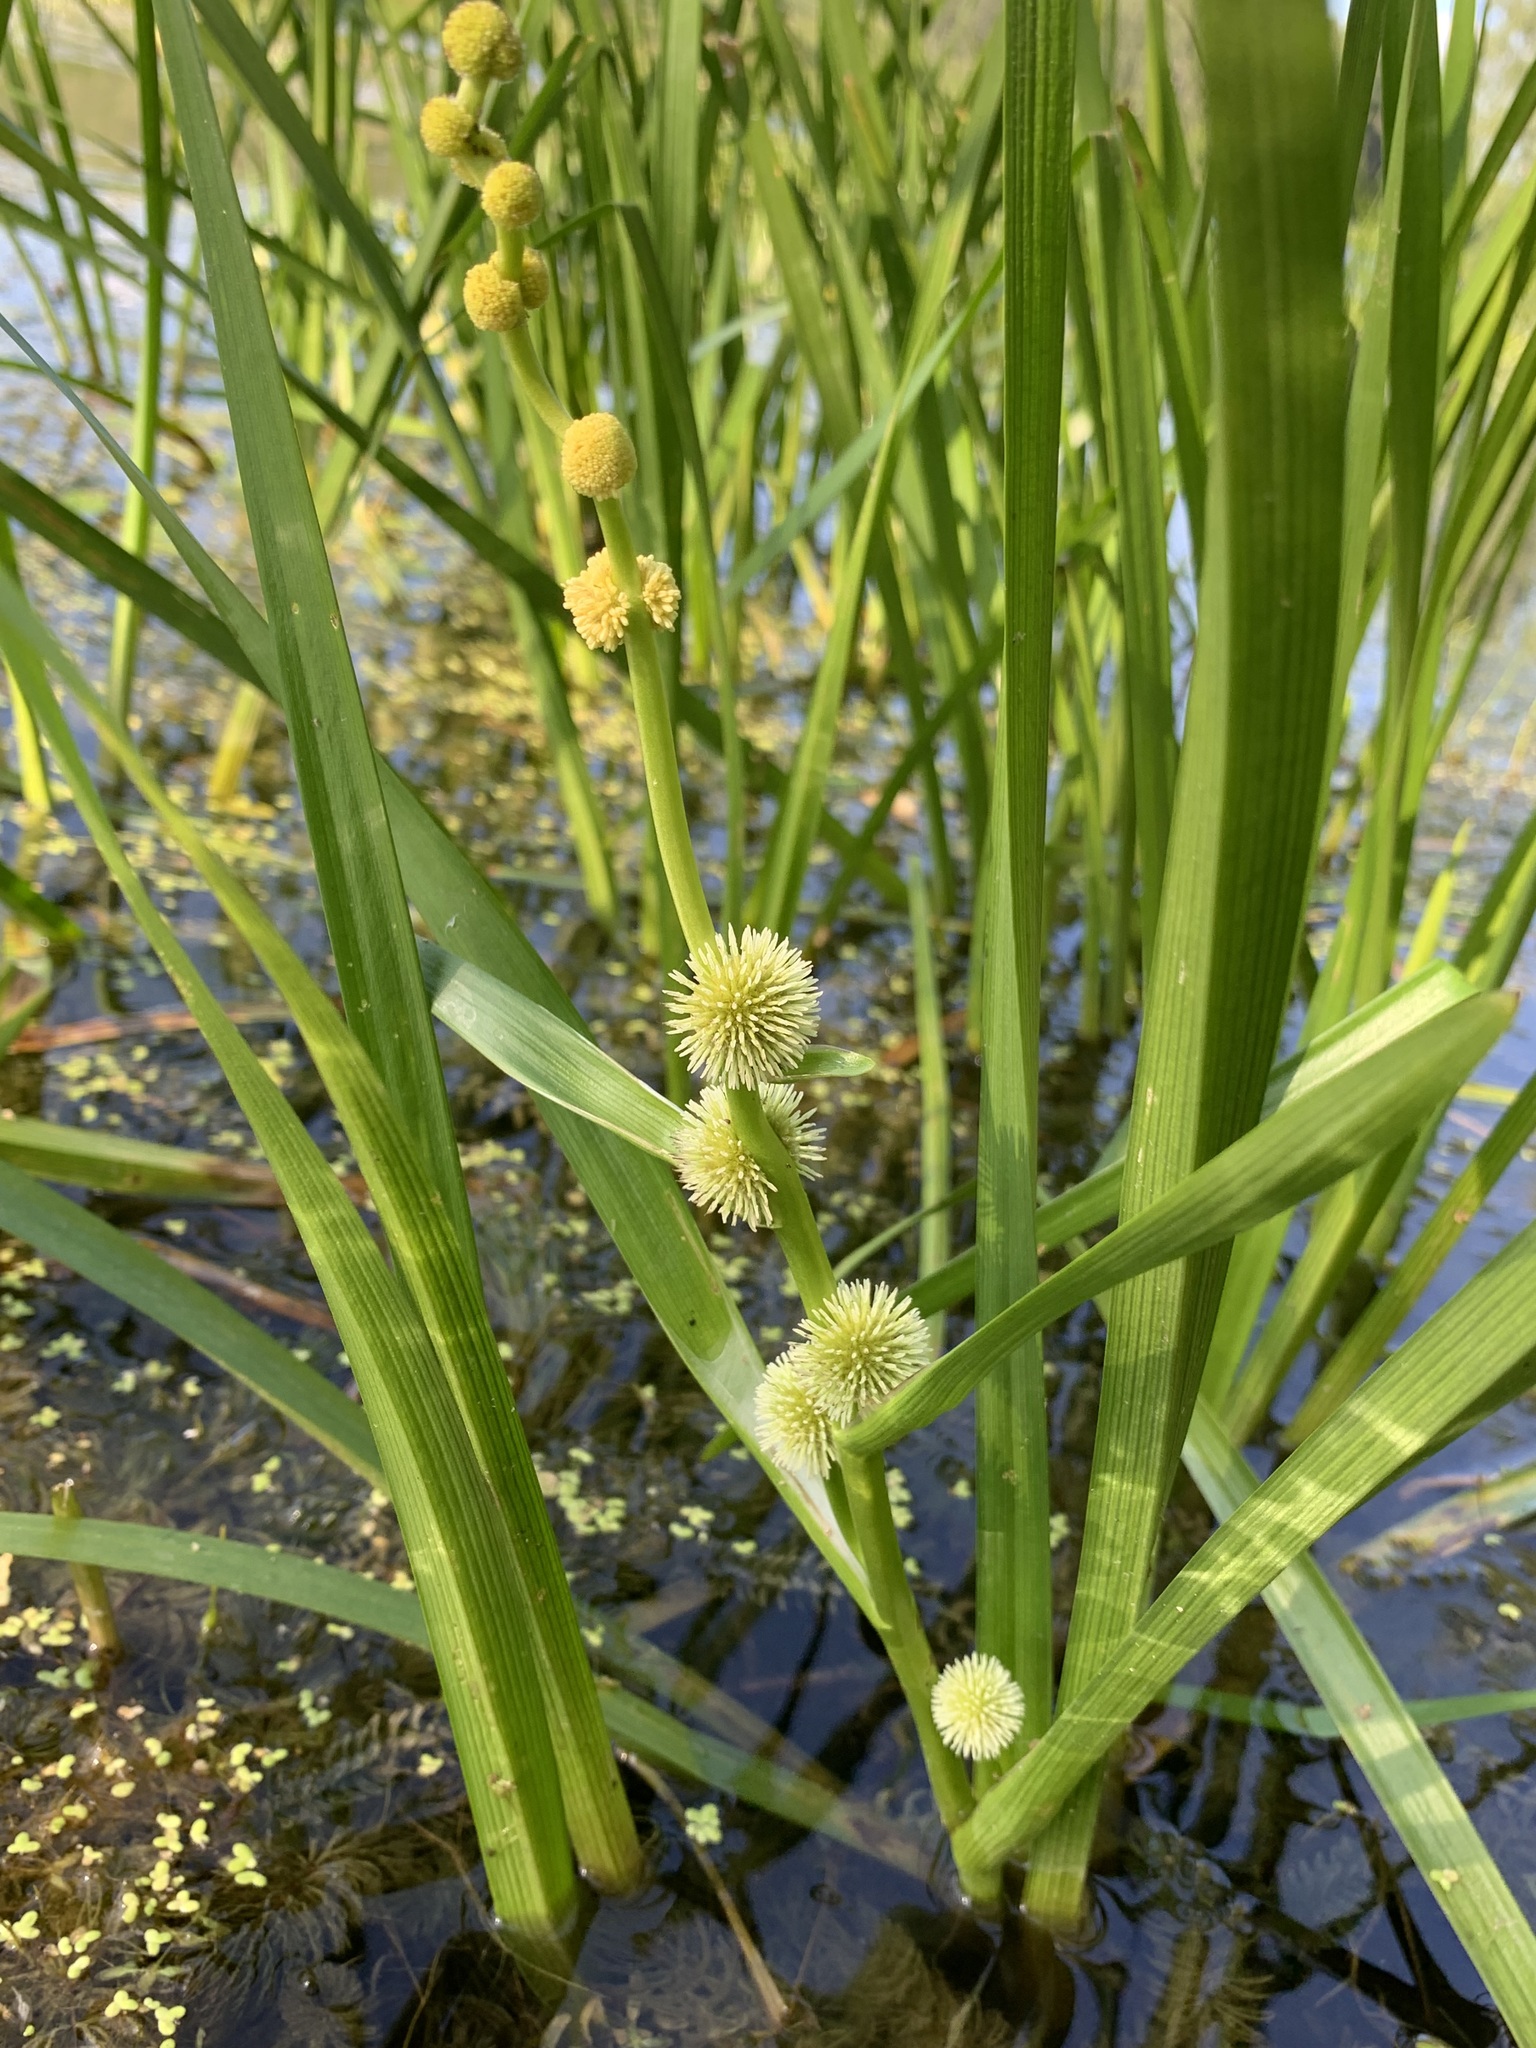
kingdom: Plantae
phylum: Tracheophyta
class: Liliopsida
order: Poales
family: Typhaceae
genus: Sparganium
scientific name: Sparganium emersum
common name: Unbranched bur-reed
